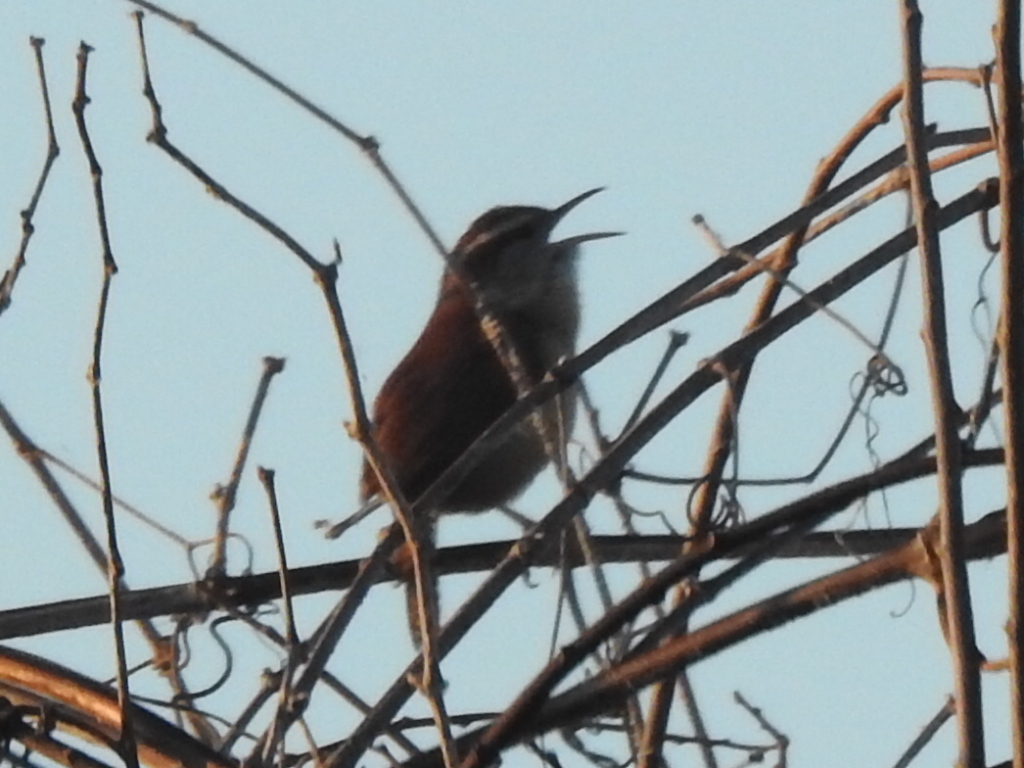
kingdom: Animalia
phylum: Chordata
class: Aves
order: Passeriformes
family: Troglodytidae
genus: Thryothorus
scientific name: Thryothorus ludovicianus
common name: Carolina wren
